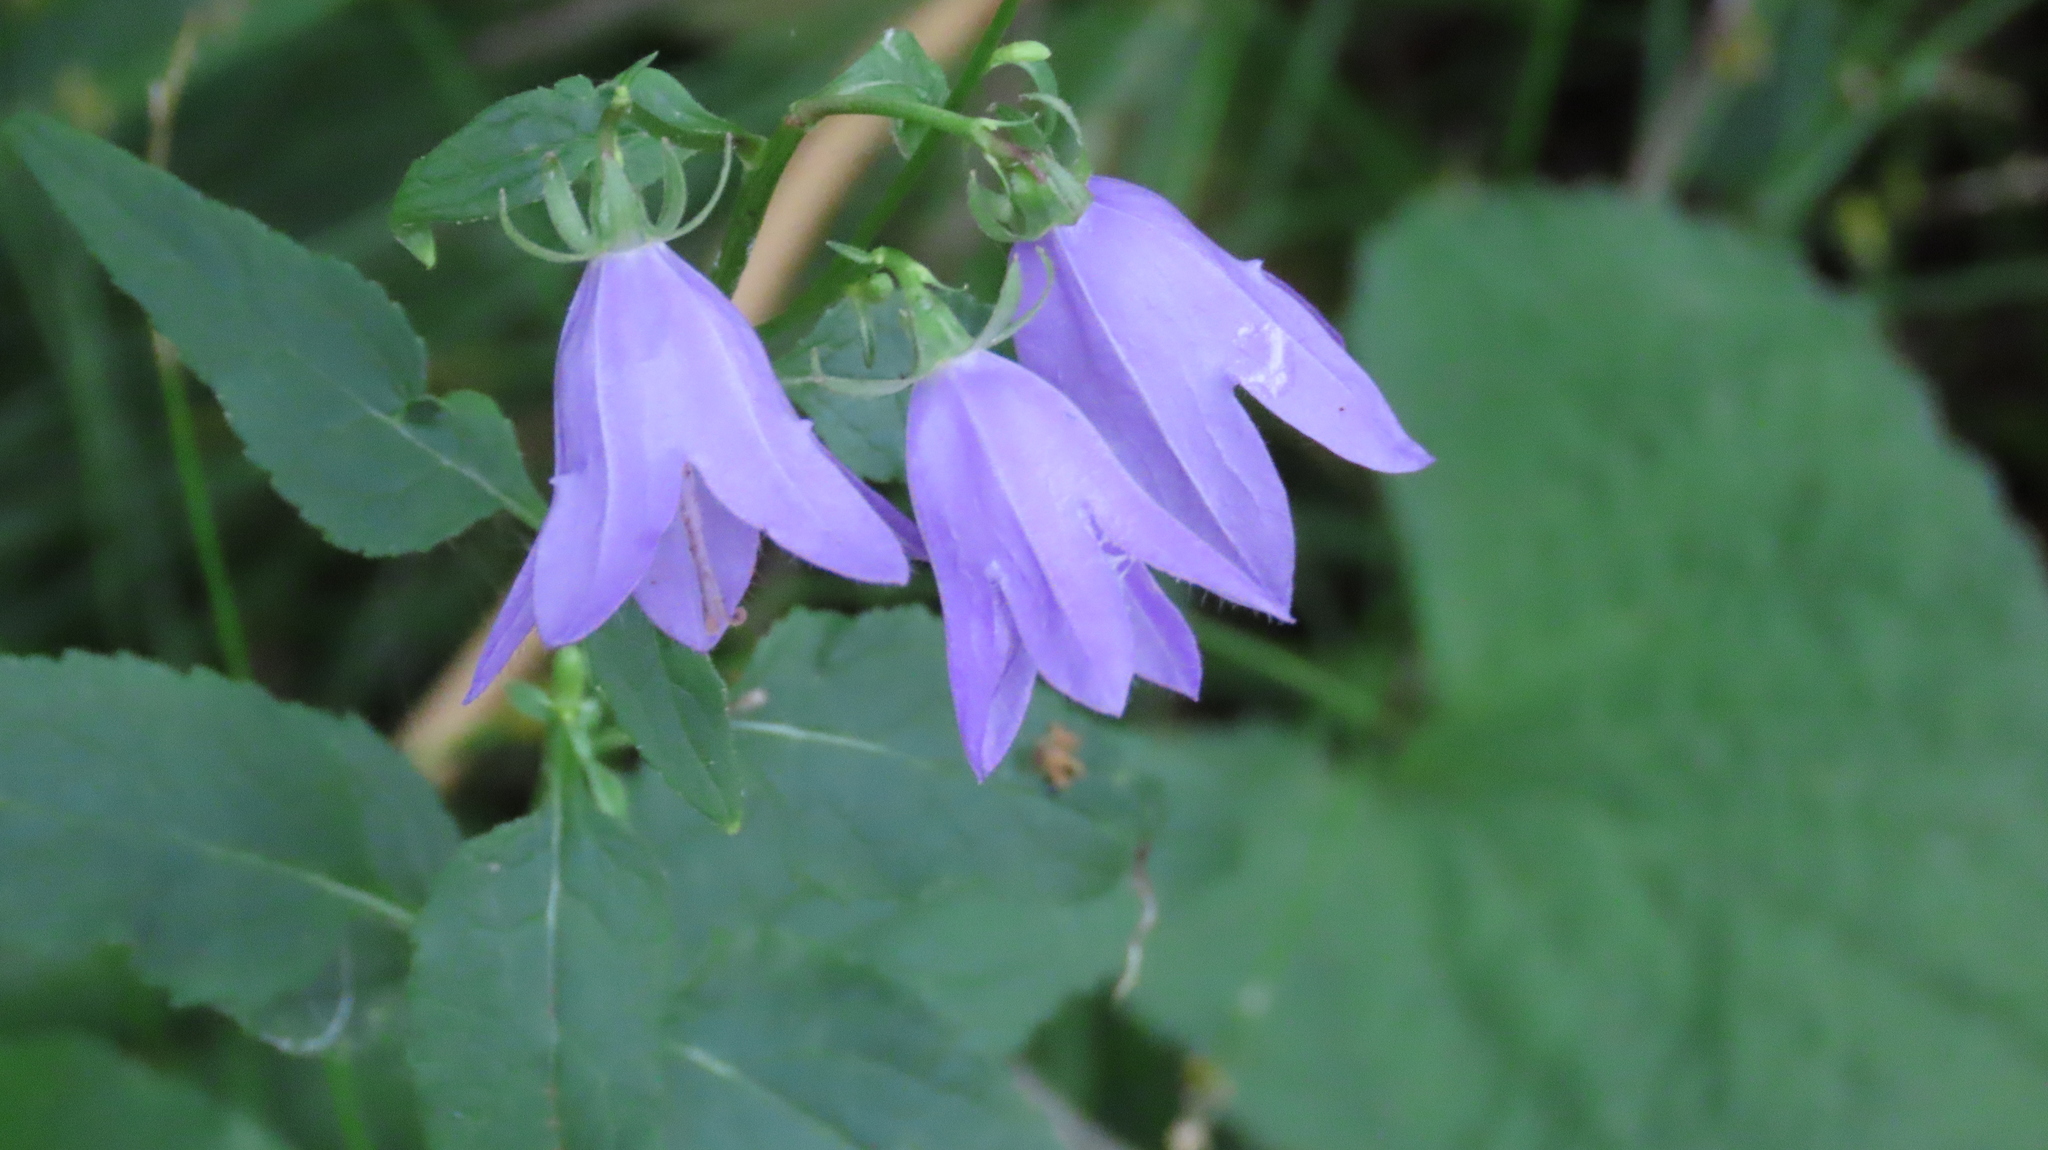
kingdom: Plantae
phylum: Tracheophyta
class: Magnoliopsida
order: Asterales
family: Campanulaceae
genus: Campanula
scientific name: Campanula rapunculoides
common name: Creeping bellflower
